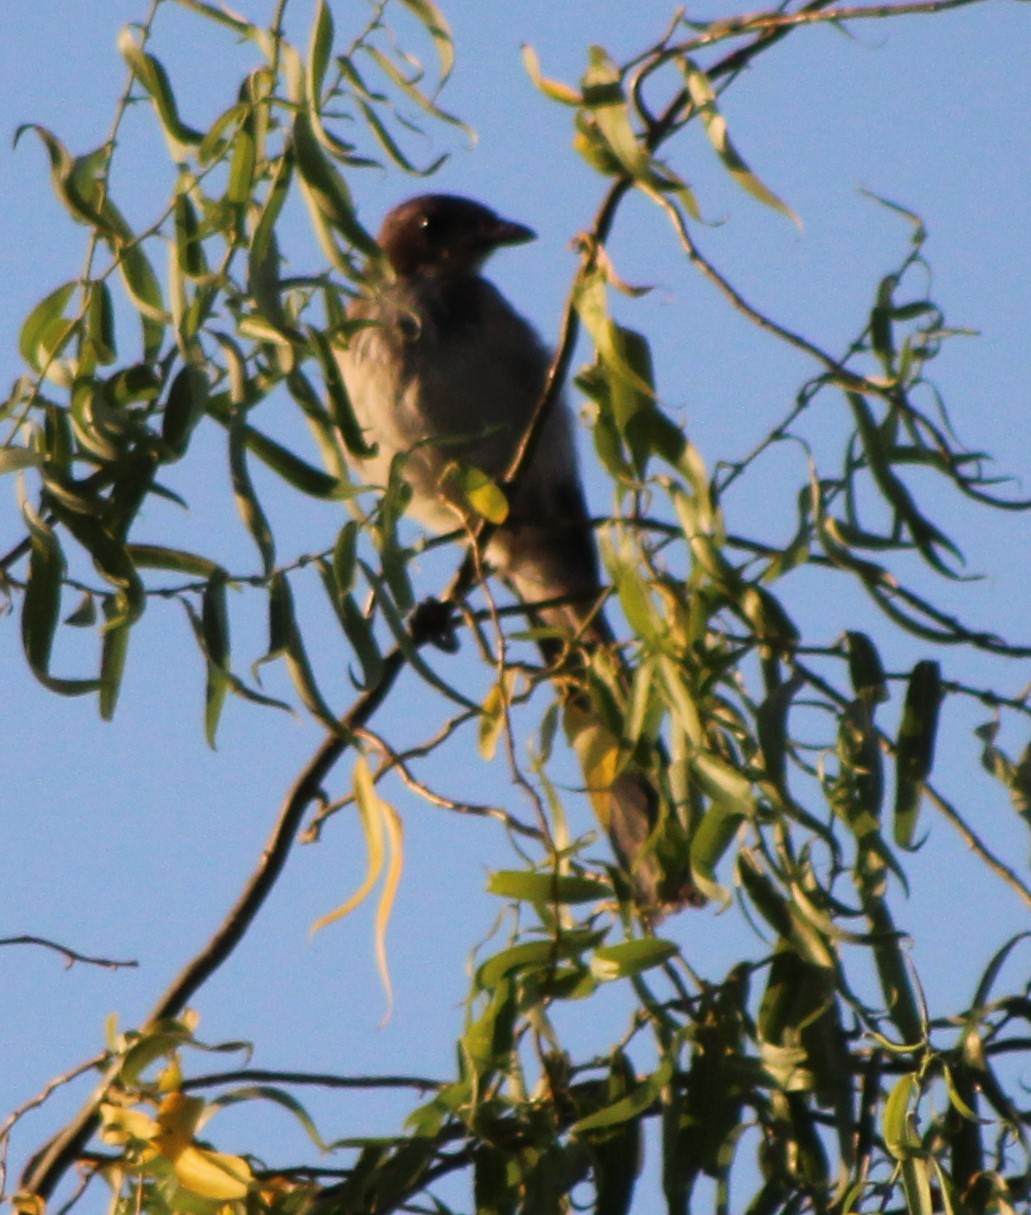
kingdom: Animalia
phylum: Chordata
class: Aves
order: Passeriformes
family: Corvidae
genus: Aphelocoma
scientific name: Aphelocoma californica
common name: California scrub-jay
